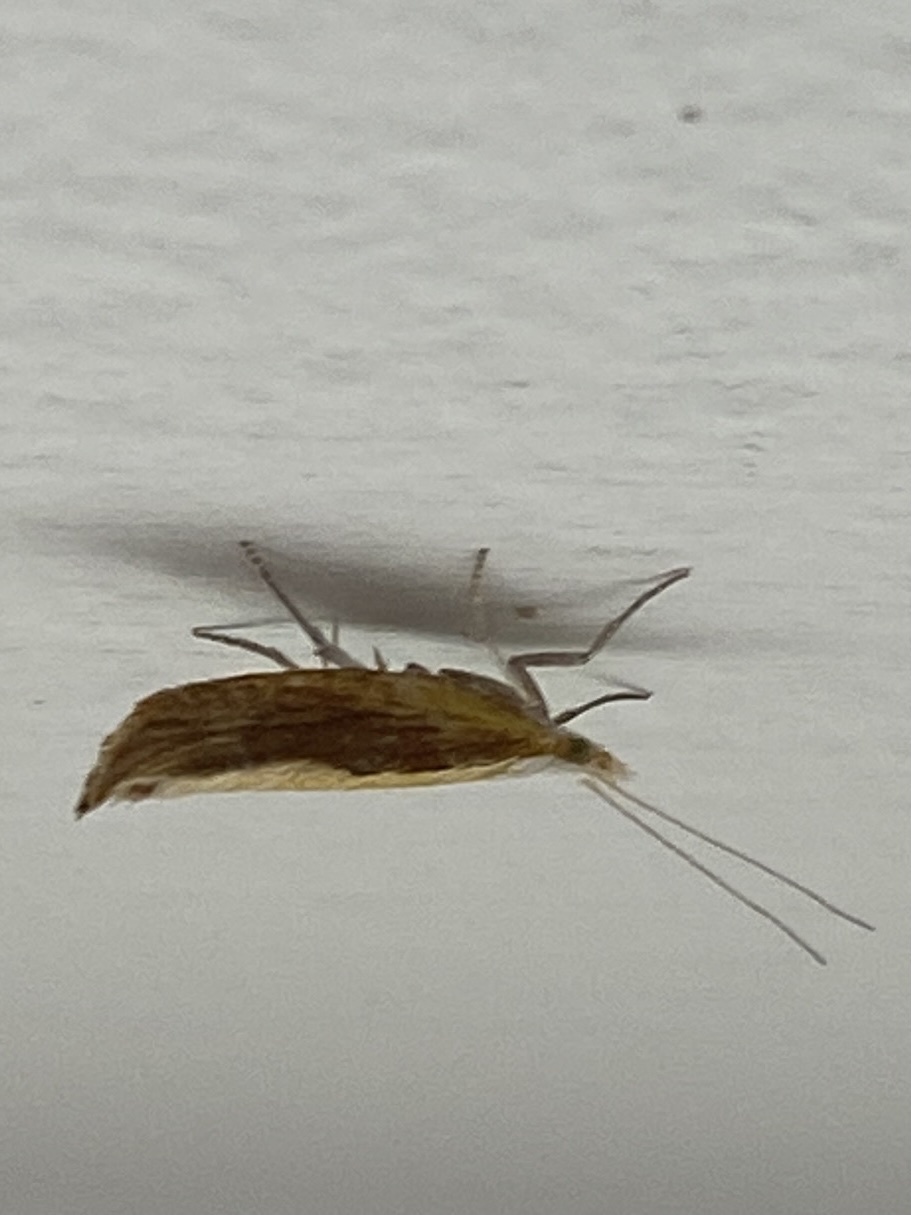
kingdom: Animalia
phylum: Arthropoda
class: Insecta
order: Lepidoptera
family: Ypsolophidae
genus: Ypsolopha
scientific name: Ypsolopha dentella
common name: Honeysuckle moth
